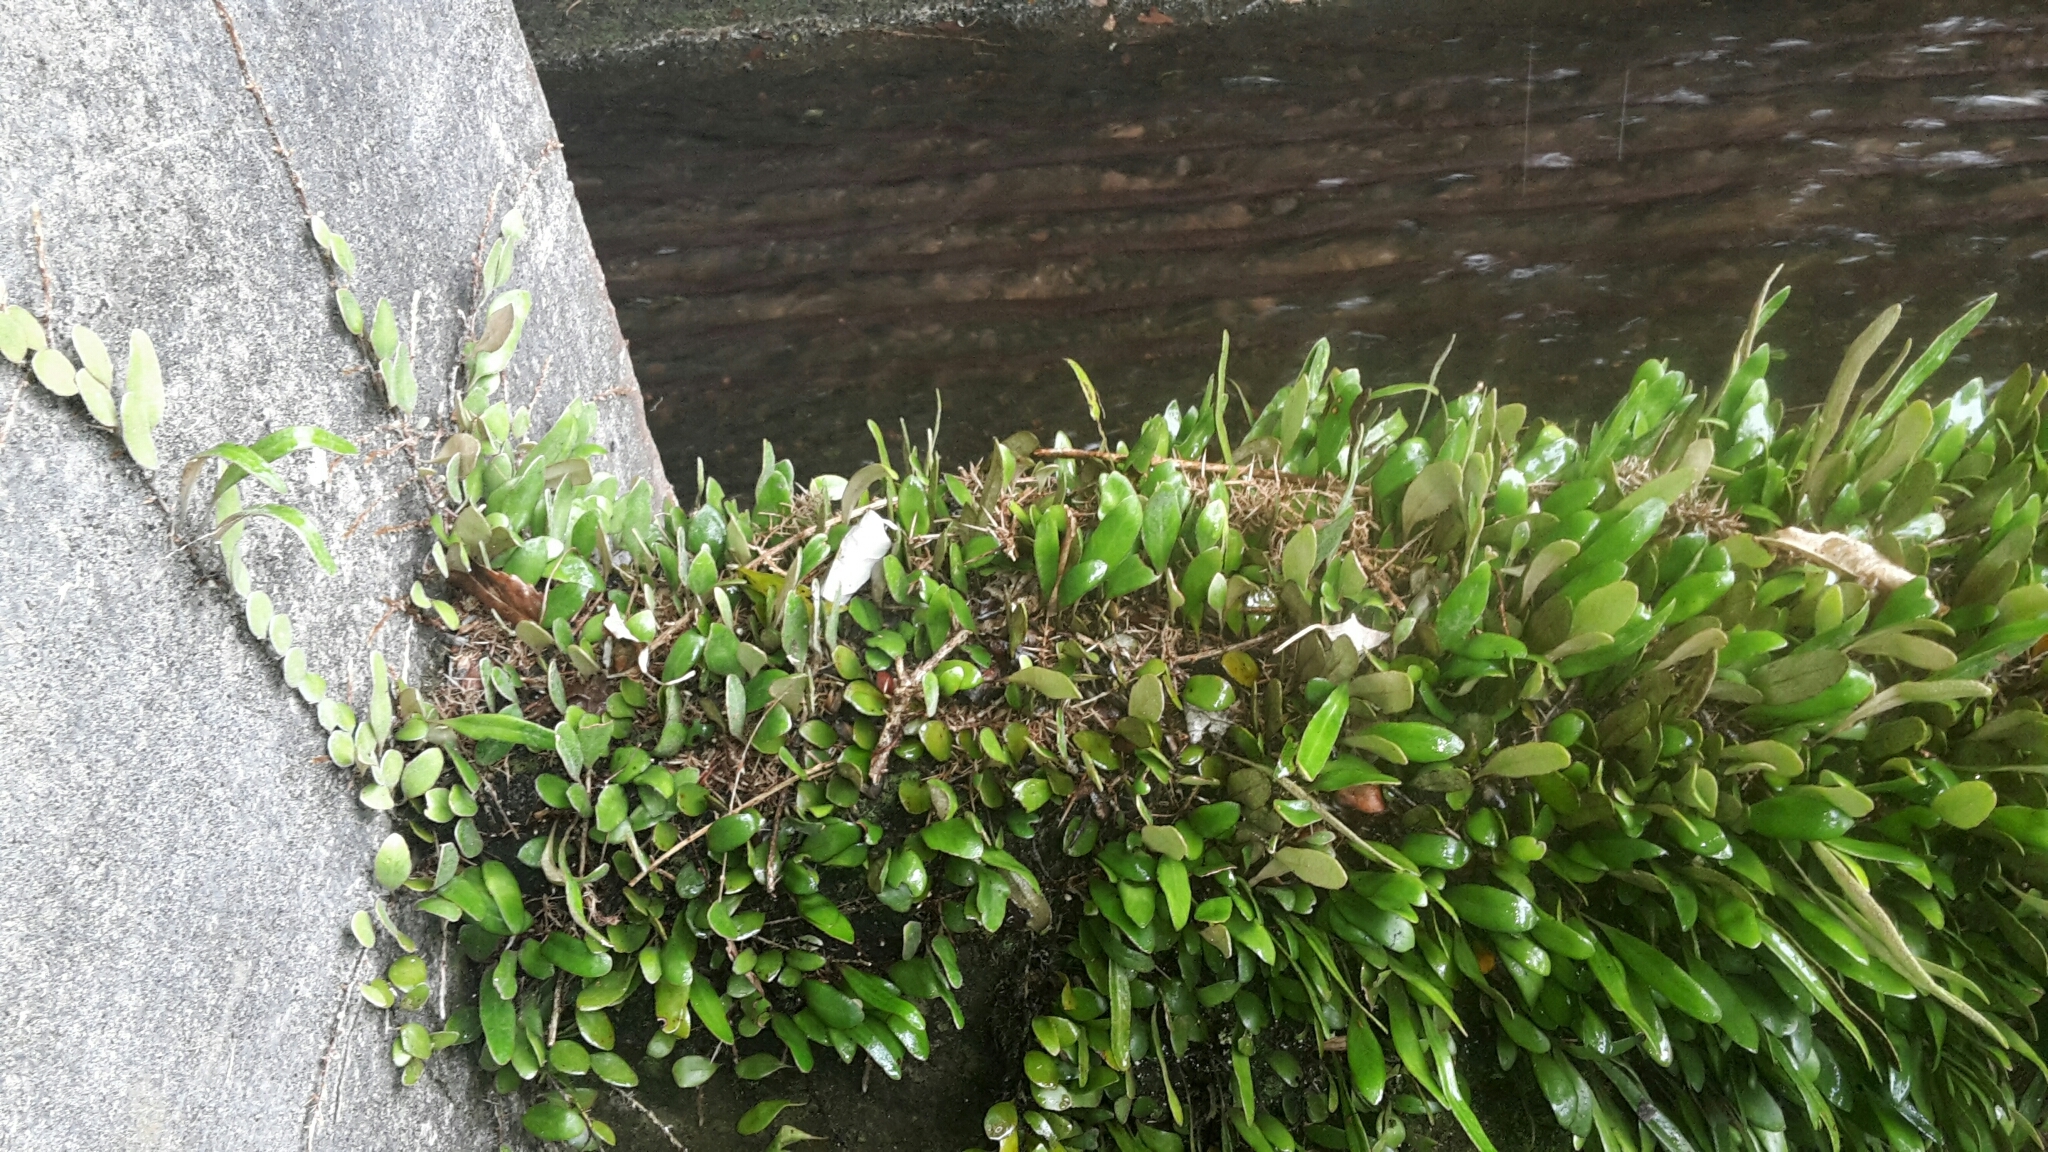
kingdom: Plantae
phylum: Tracheophyta
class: Polypodiopsida
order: Polypodiales
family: Polypodiaceae
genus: Pyrrosia
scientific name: Pyrrosia eleagnifolia
